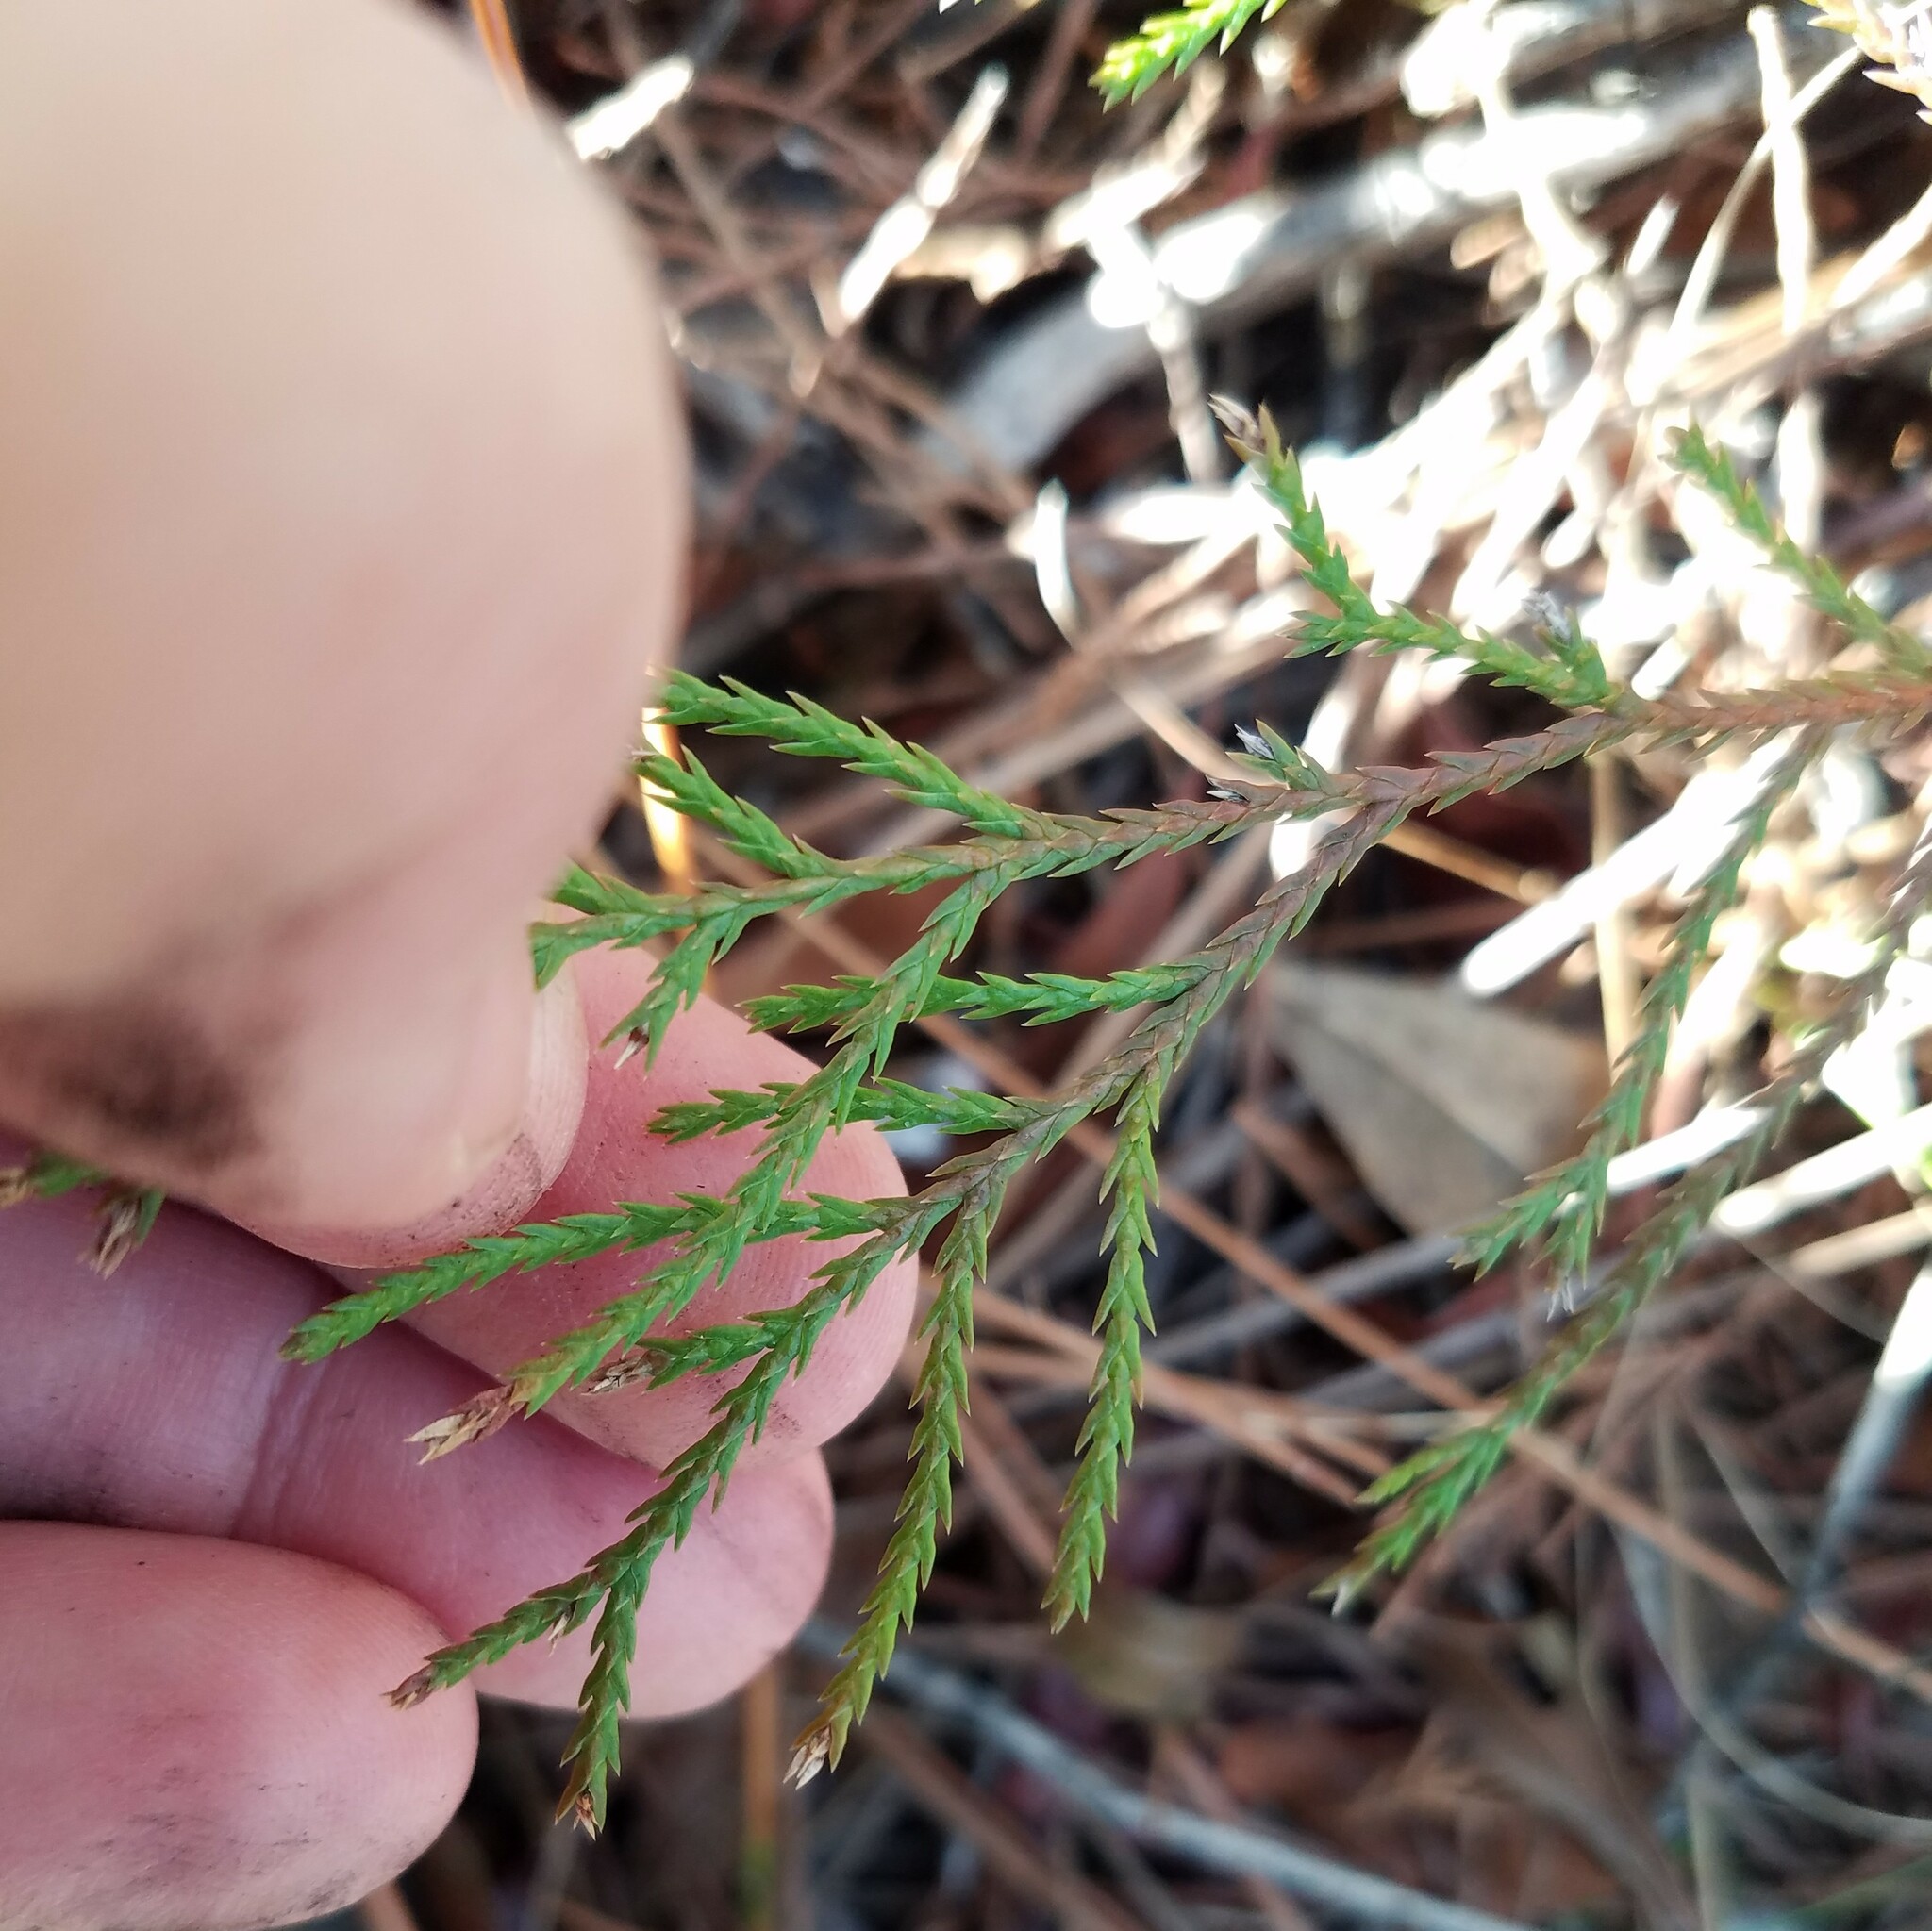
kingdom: Plantae
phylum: Tracheophyta
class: Pinopsida
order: Pinales
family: Cupressaceae
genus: Chamaecyparis
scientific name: Chamaecyparis thyoides
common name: Atlantic white cedar
